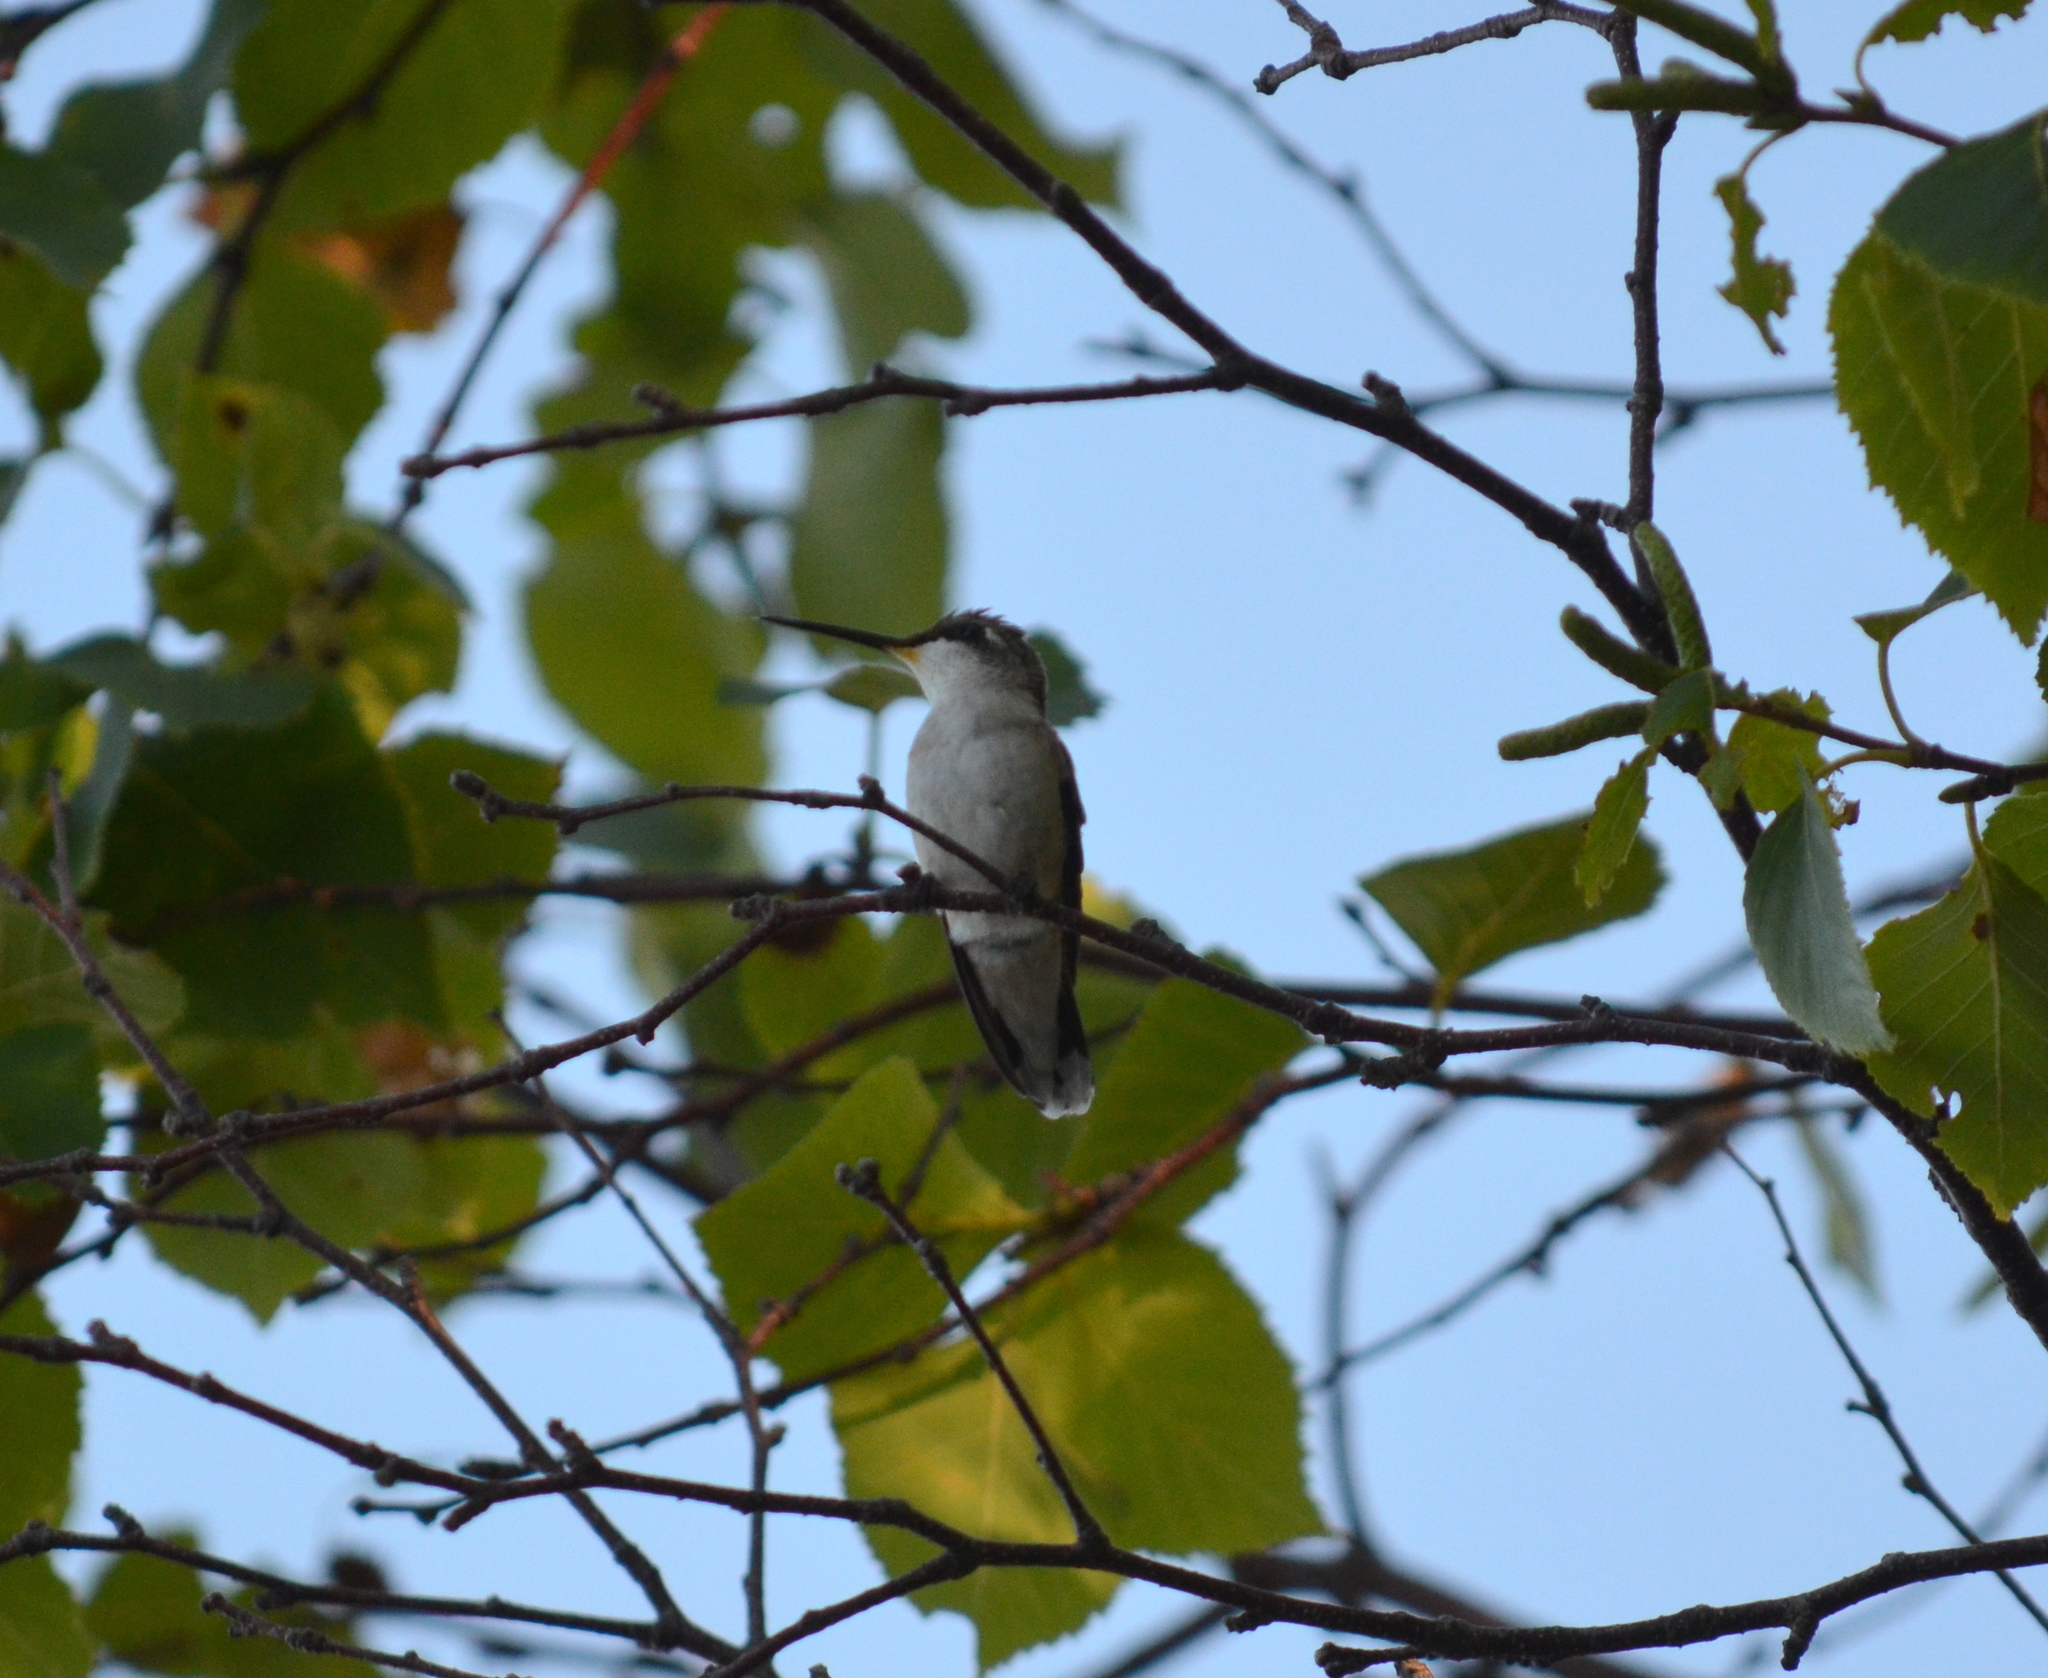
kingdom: Animalia
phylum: Chordata
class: Aves
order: Apodiformes
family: Trochilidae
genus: Archilochus
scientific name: Archilochus colubris
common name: Ruby-throated hummingbird
